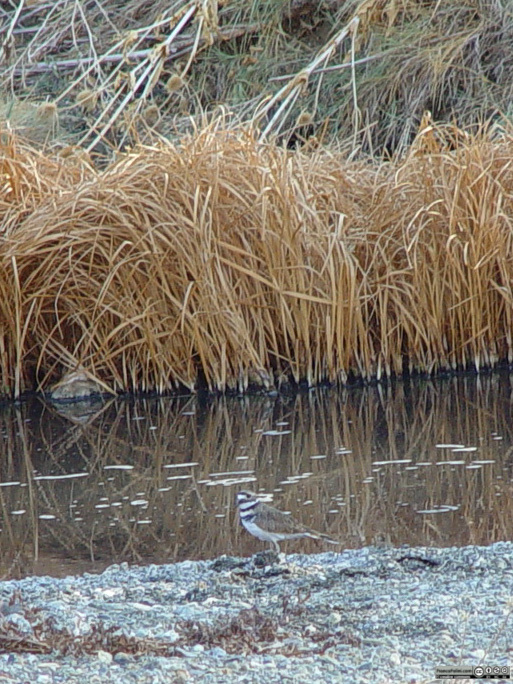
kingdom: Animalia
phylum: Chordata
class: Aves
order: Charadriiformes
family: Charadriidae
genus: Charadrius
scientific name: Charadrius vociferus
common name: Killdeer
